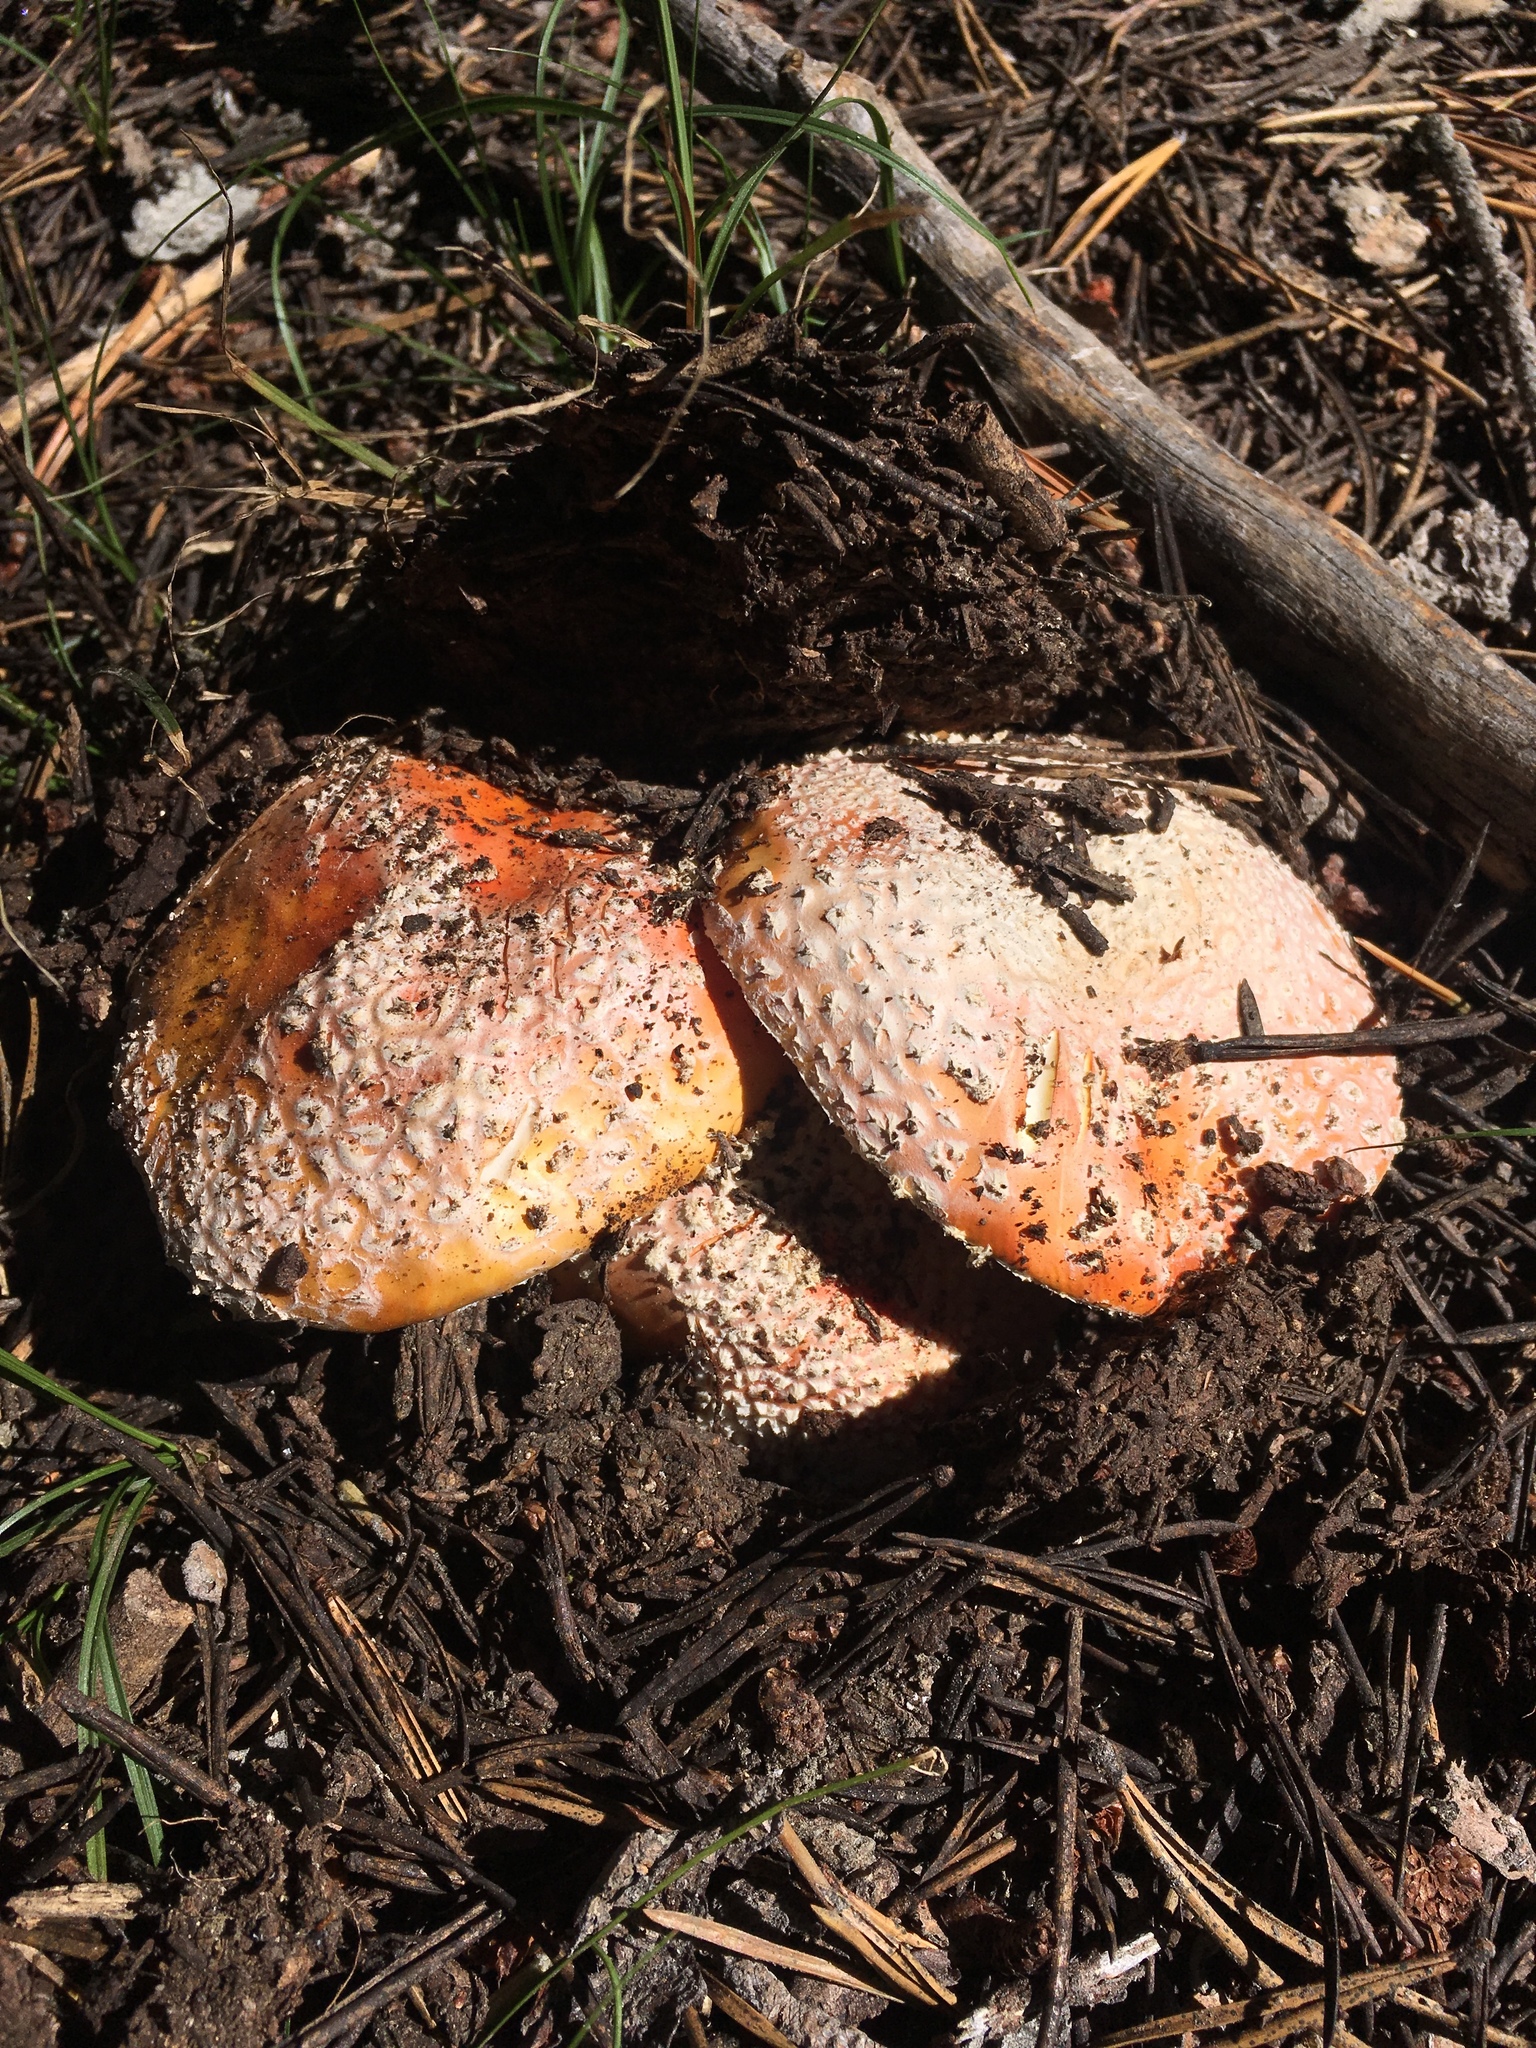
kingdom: Fungi
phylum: Basidiomycota
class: Agaricomycetes
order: Agaricales
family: Amanitaceae
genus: Amanita
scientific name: Amanita muscaria
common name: Fly agaric
